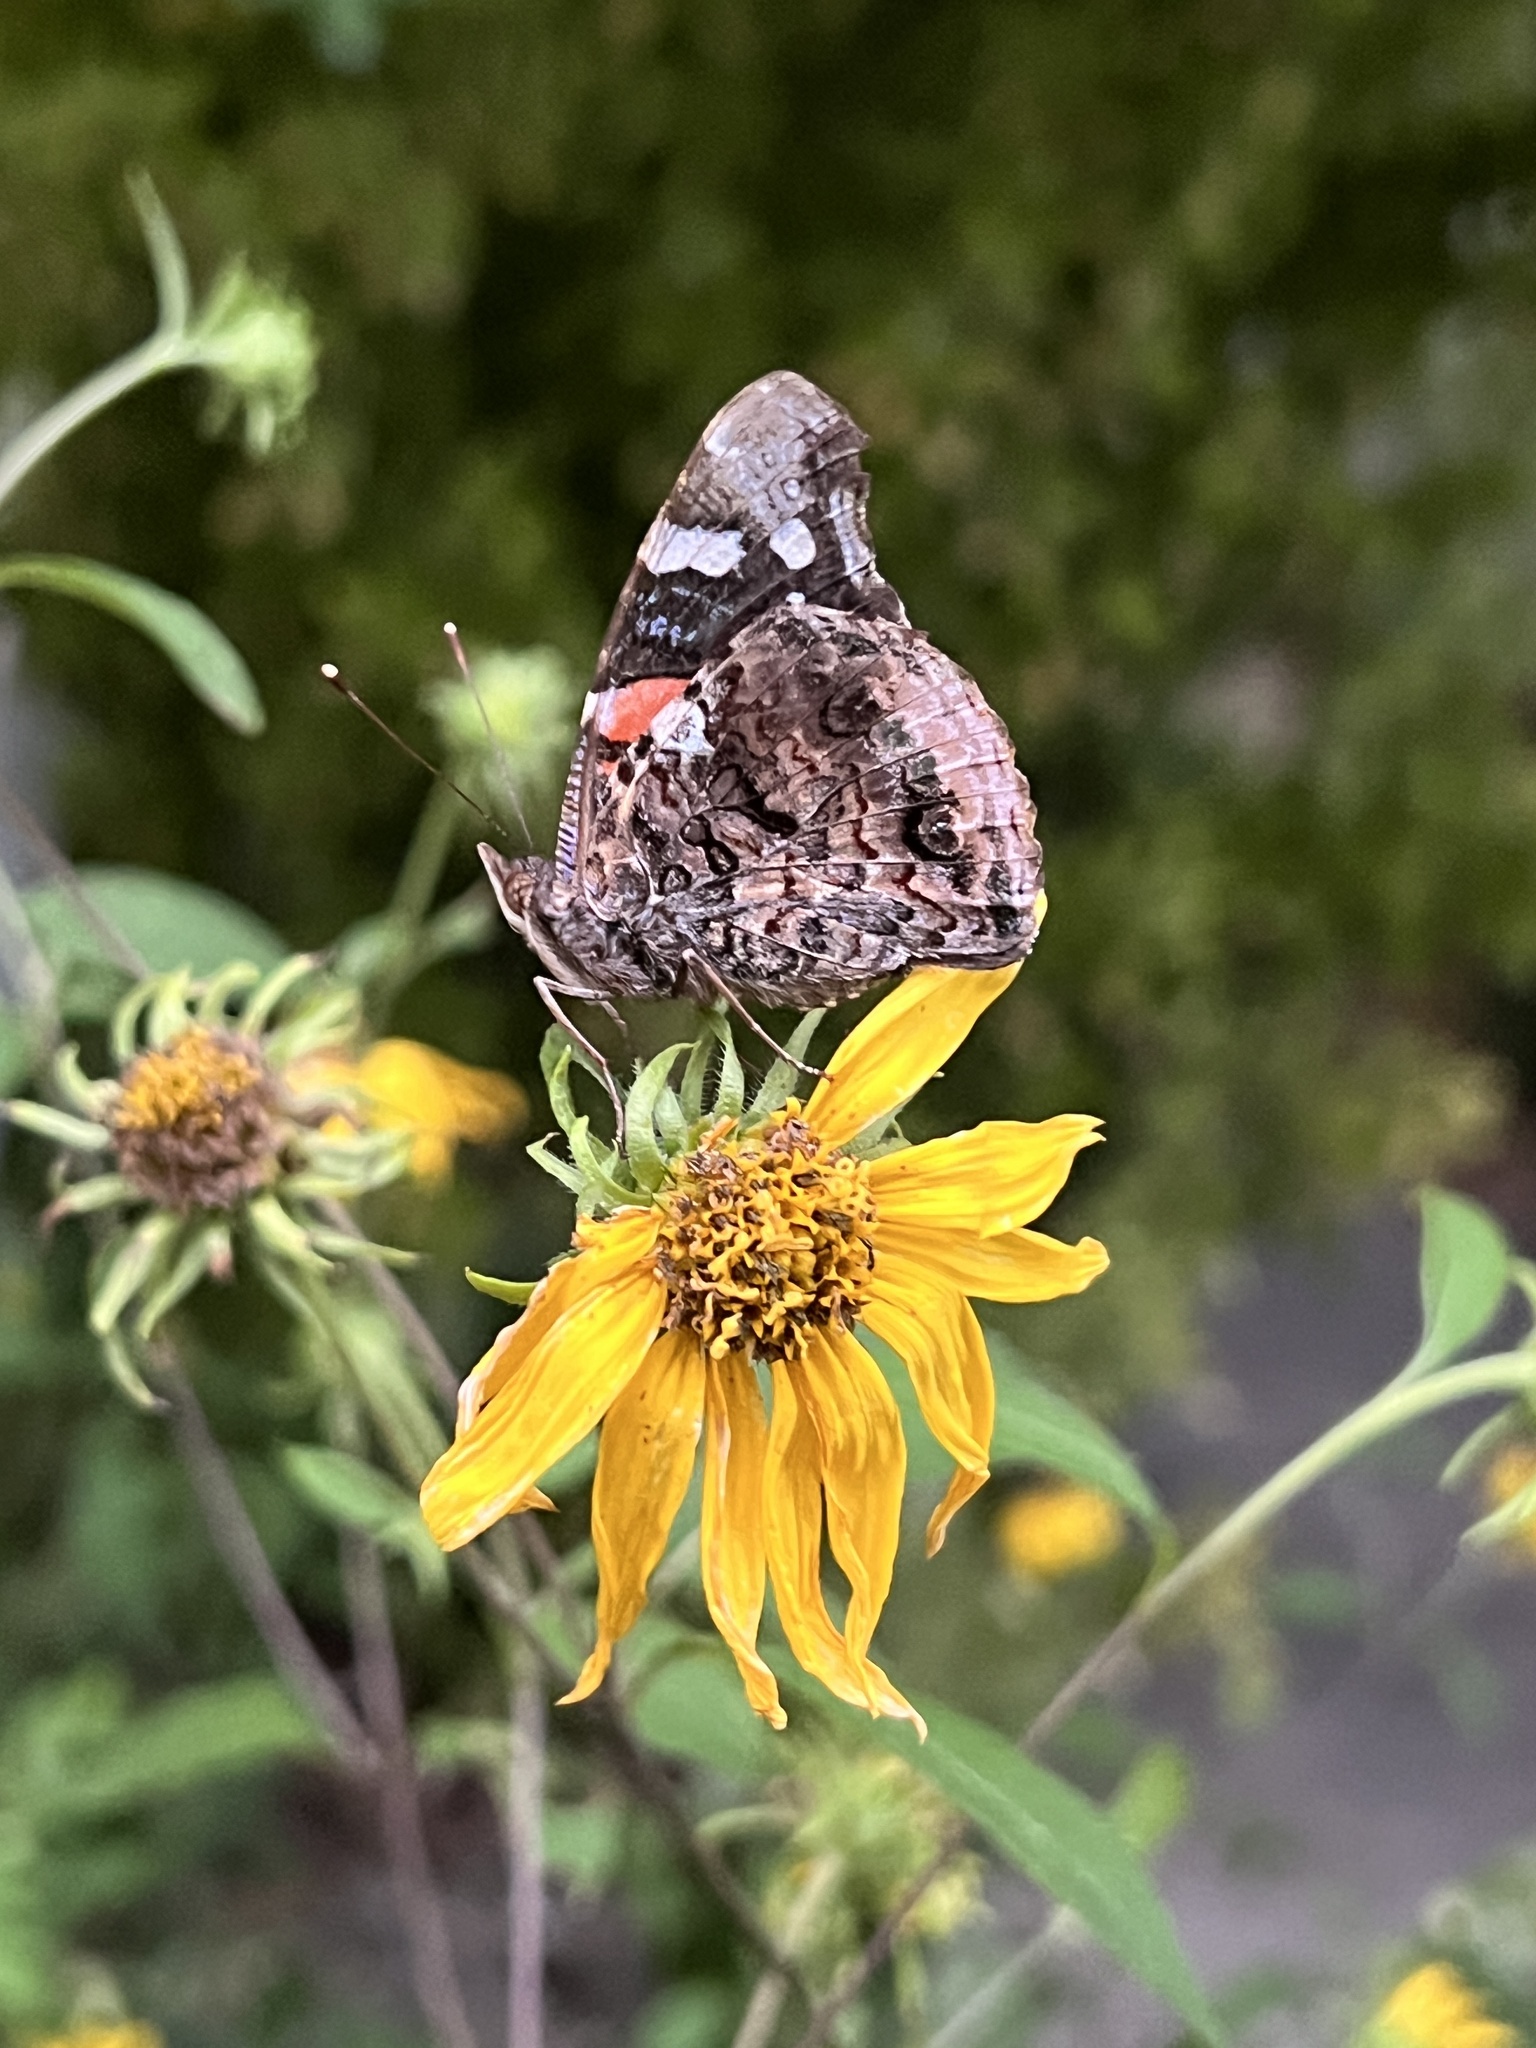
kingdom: Animalia
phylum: Arthropoda
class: Insecta
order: Lepidoptera
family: Nymphalidae
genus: Vanessa
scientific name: Vanessa atalanta
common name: Red admiral
